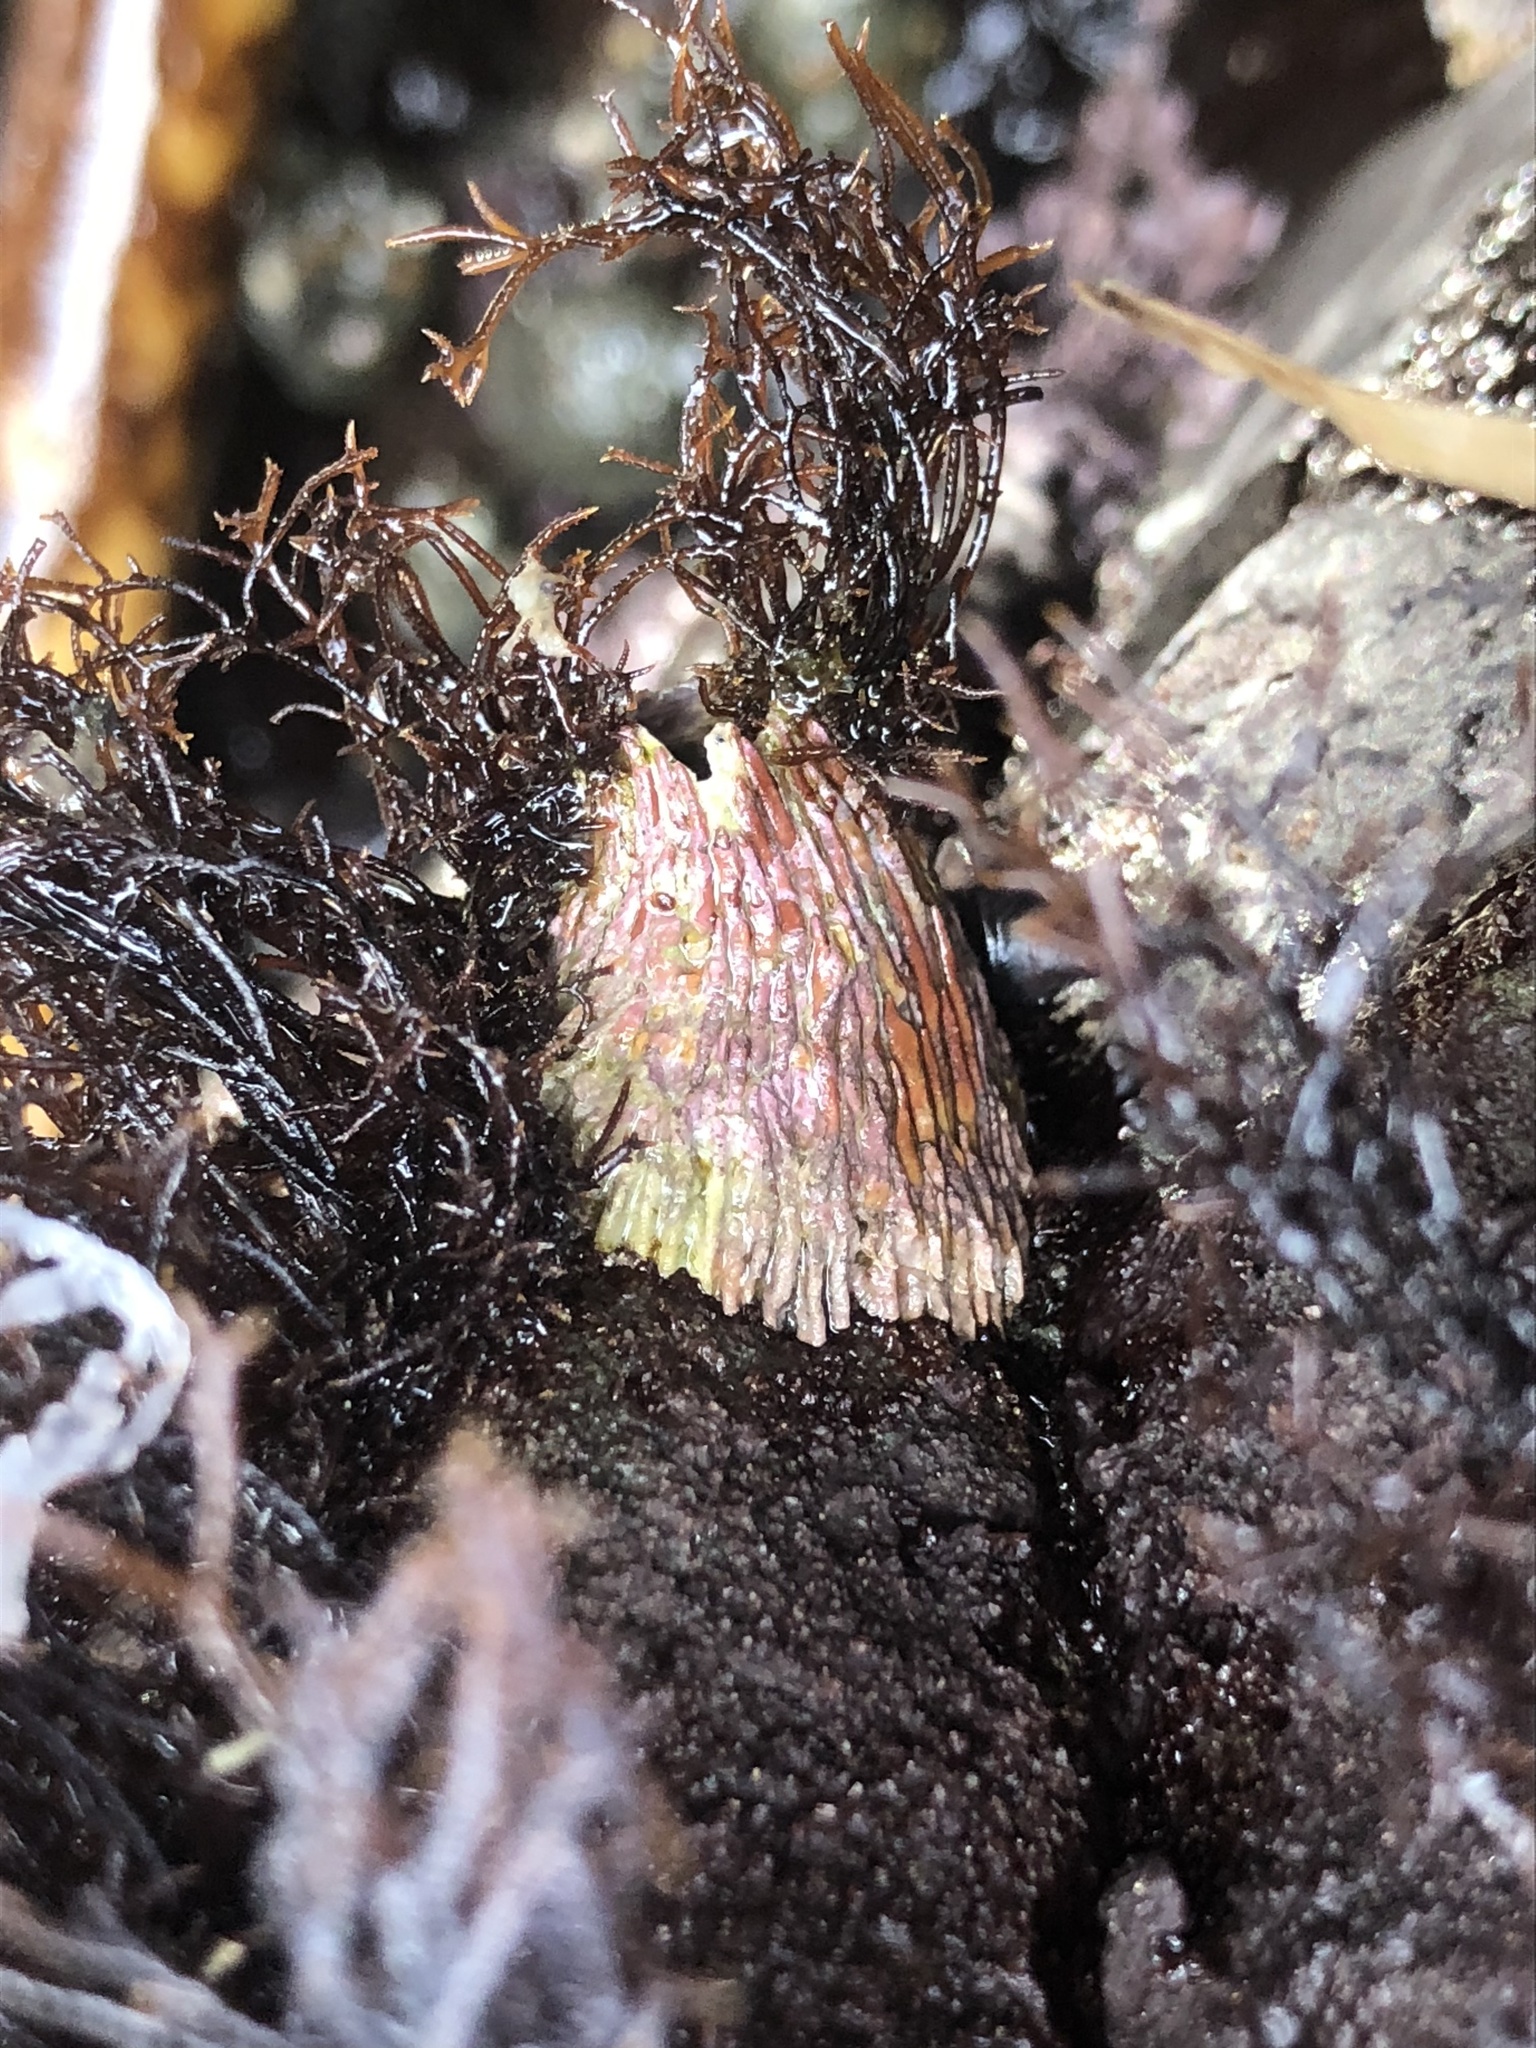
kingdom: Animalia
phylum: Arthropoda
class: Maxillopoda
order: Sessilia
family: Tetraclitidae
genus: Tetraclita
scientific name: Tetraclita rubescens
